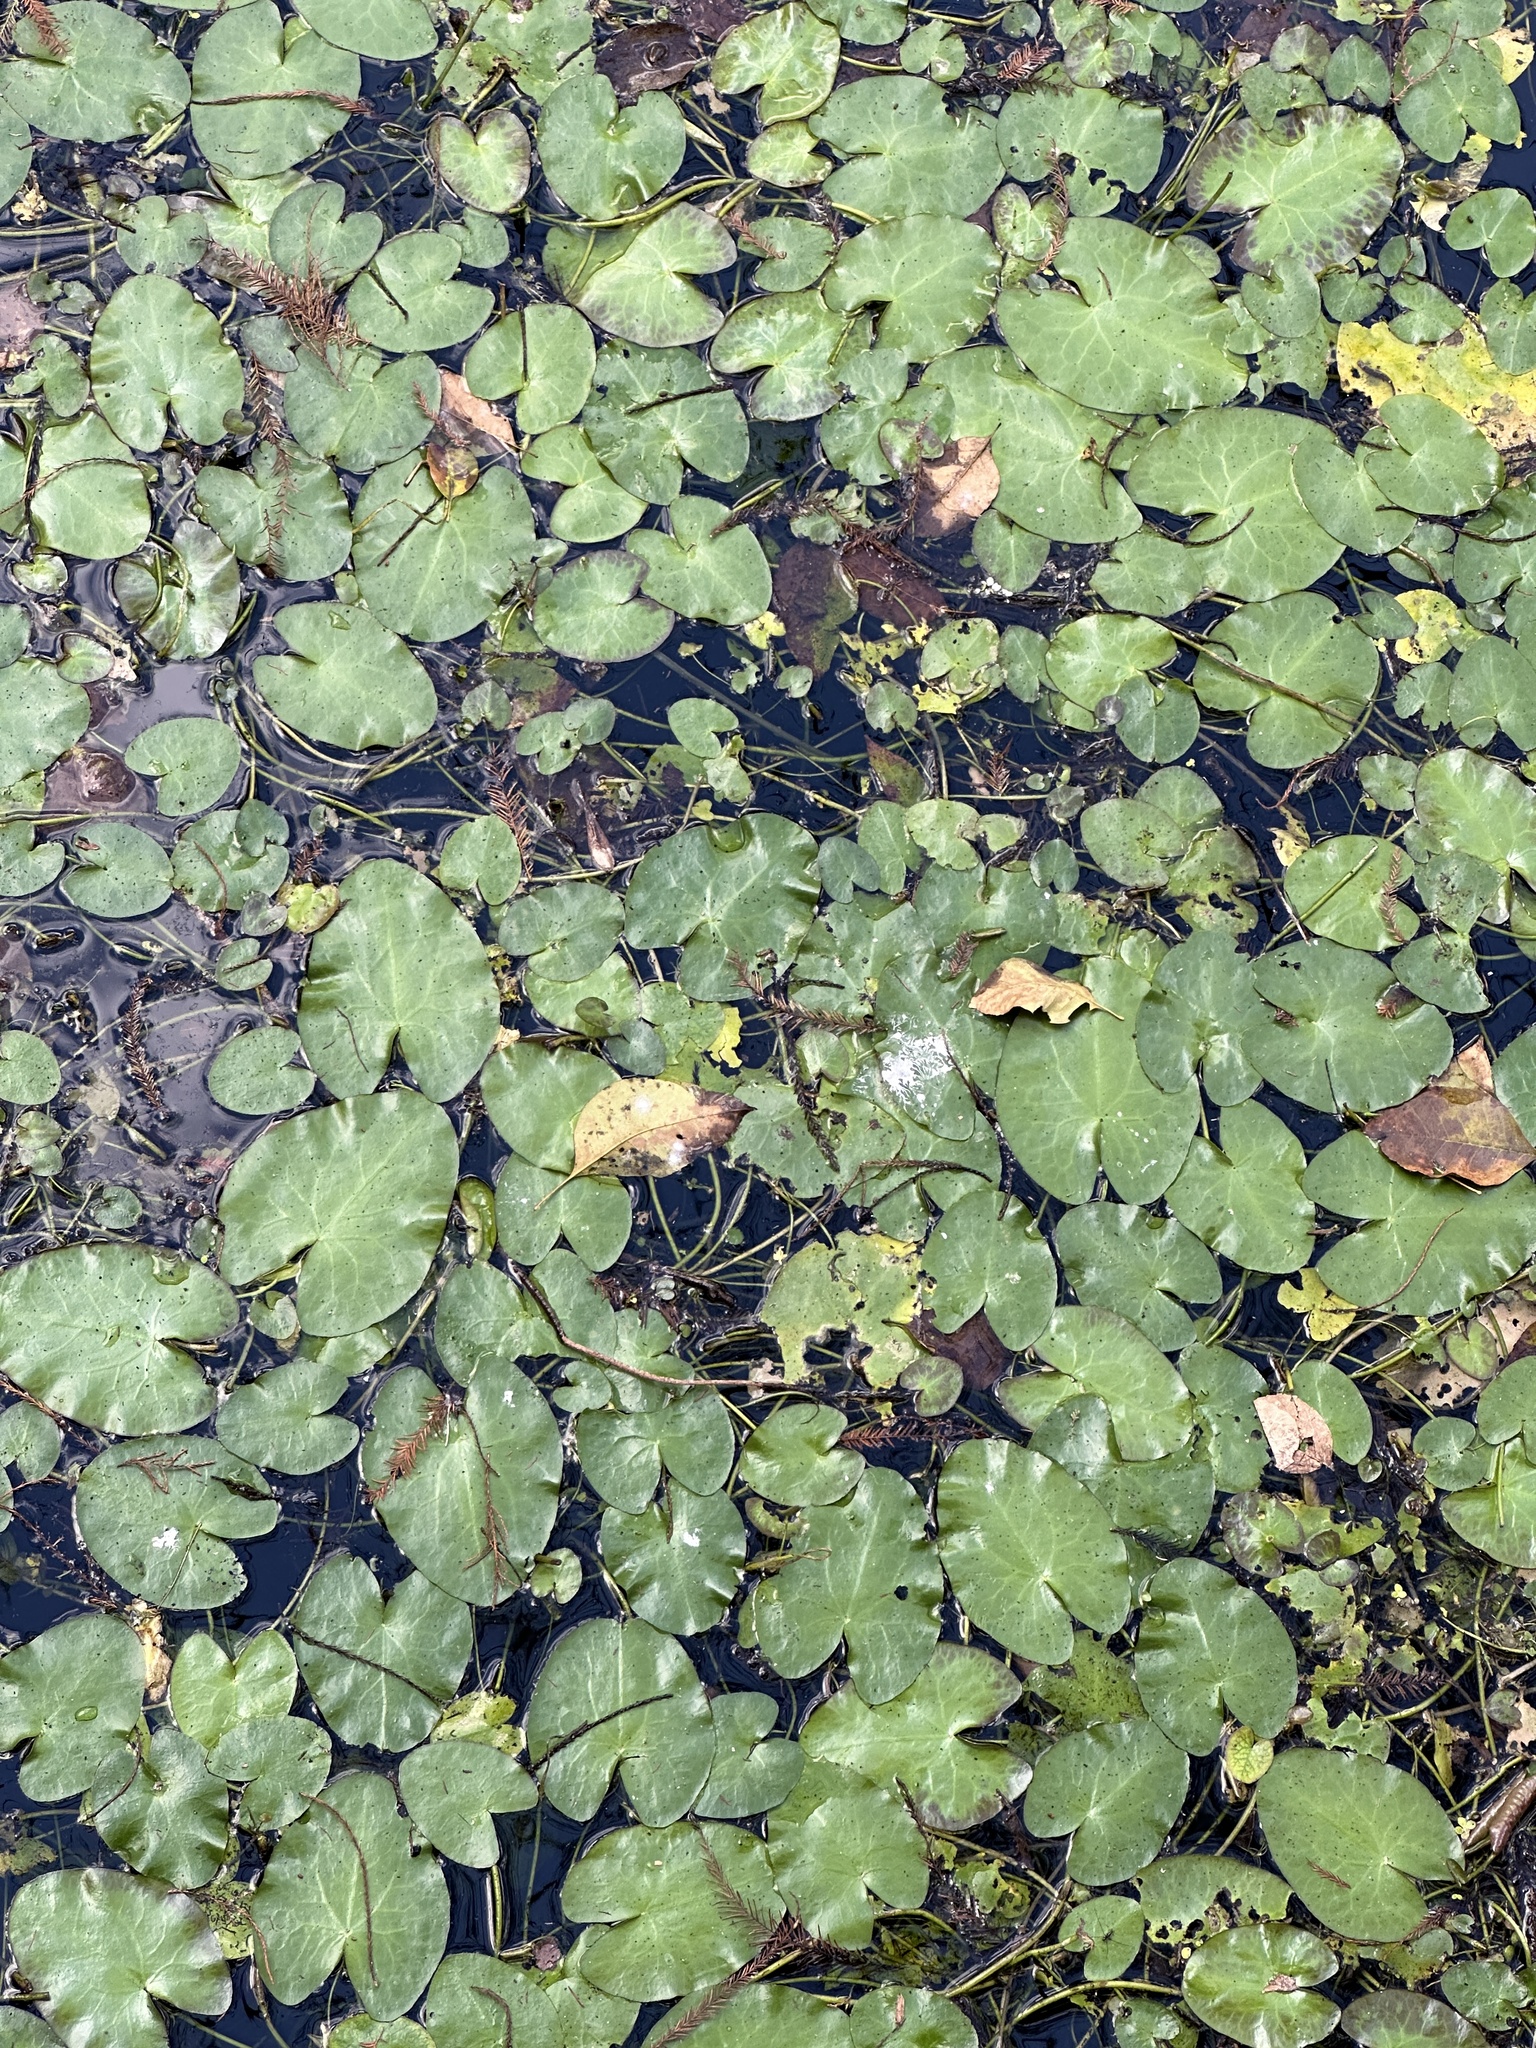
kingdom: Plantae
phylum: Tracheophyta
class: Magnoliopsida
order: Nymphaeales
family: Nymphaeaceae
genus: Nuphar
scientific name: Nuphar advena
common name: Spatter-dock
